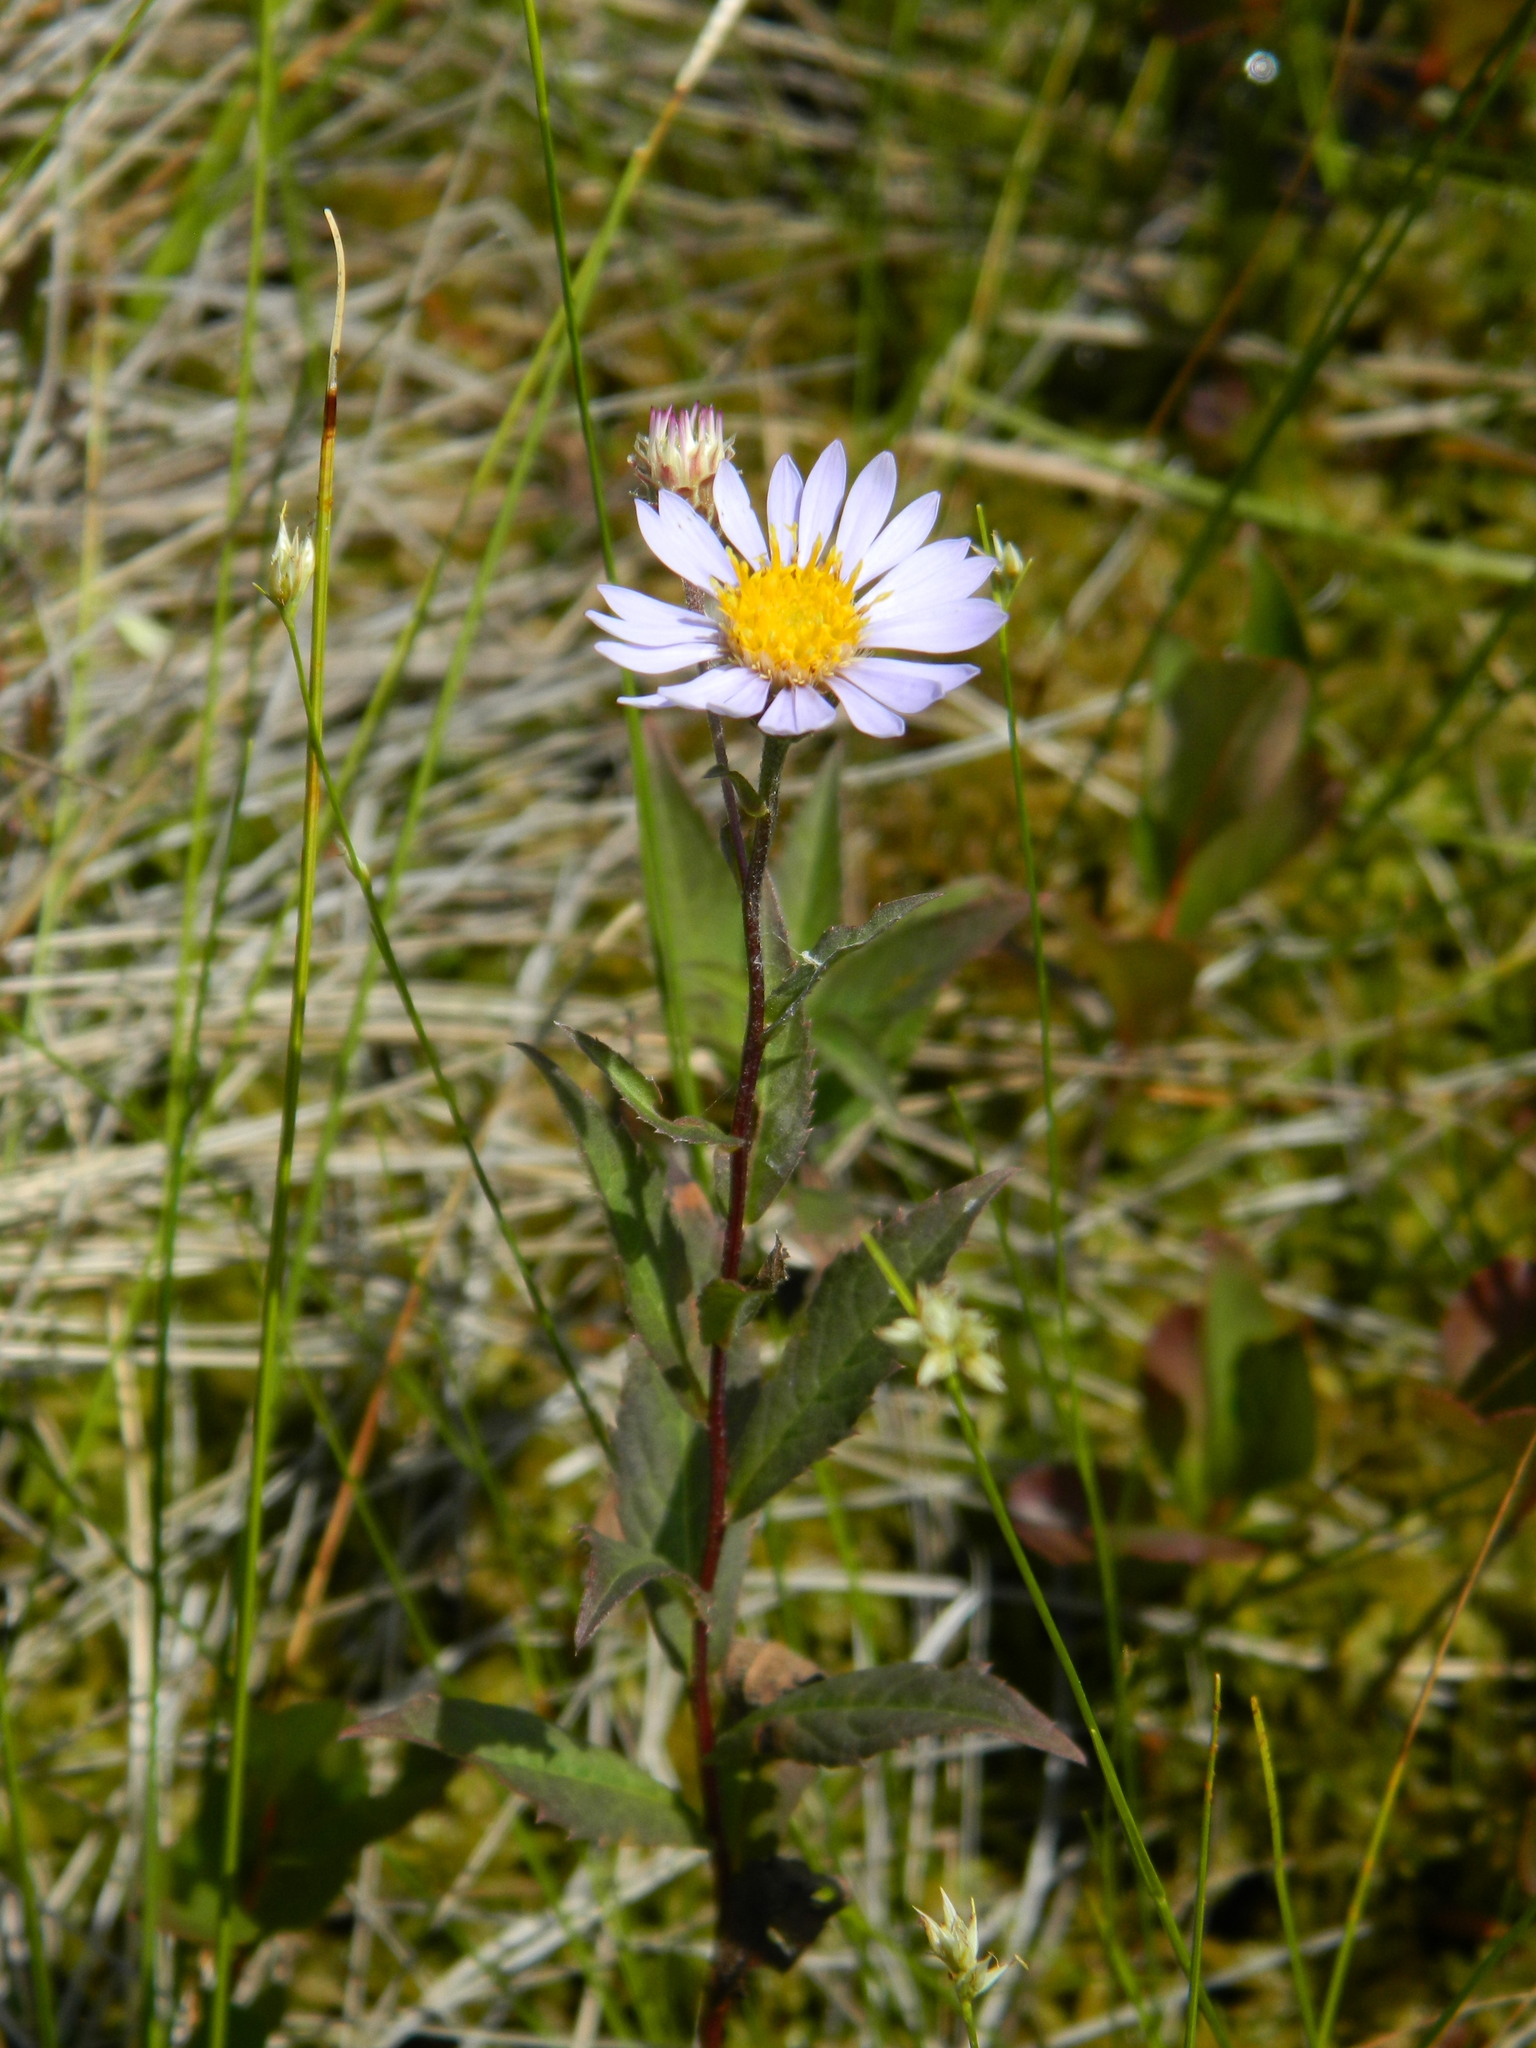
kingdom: Plantae
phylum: Tracheophyta
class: Magnoliopsida
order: Asterales
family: Asteraceae
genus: Eurybia
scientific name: Eurybia radula
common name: Low rough aster
